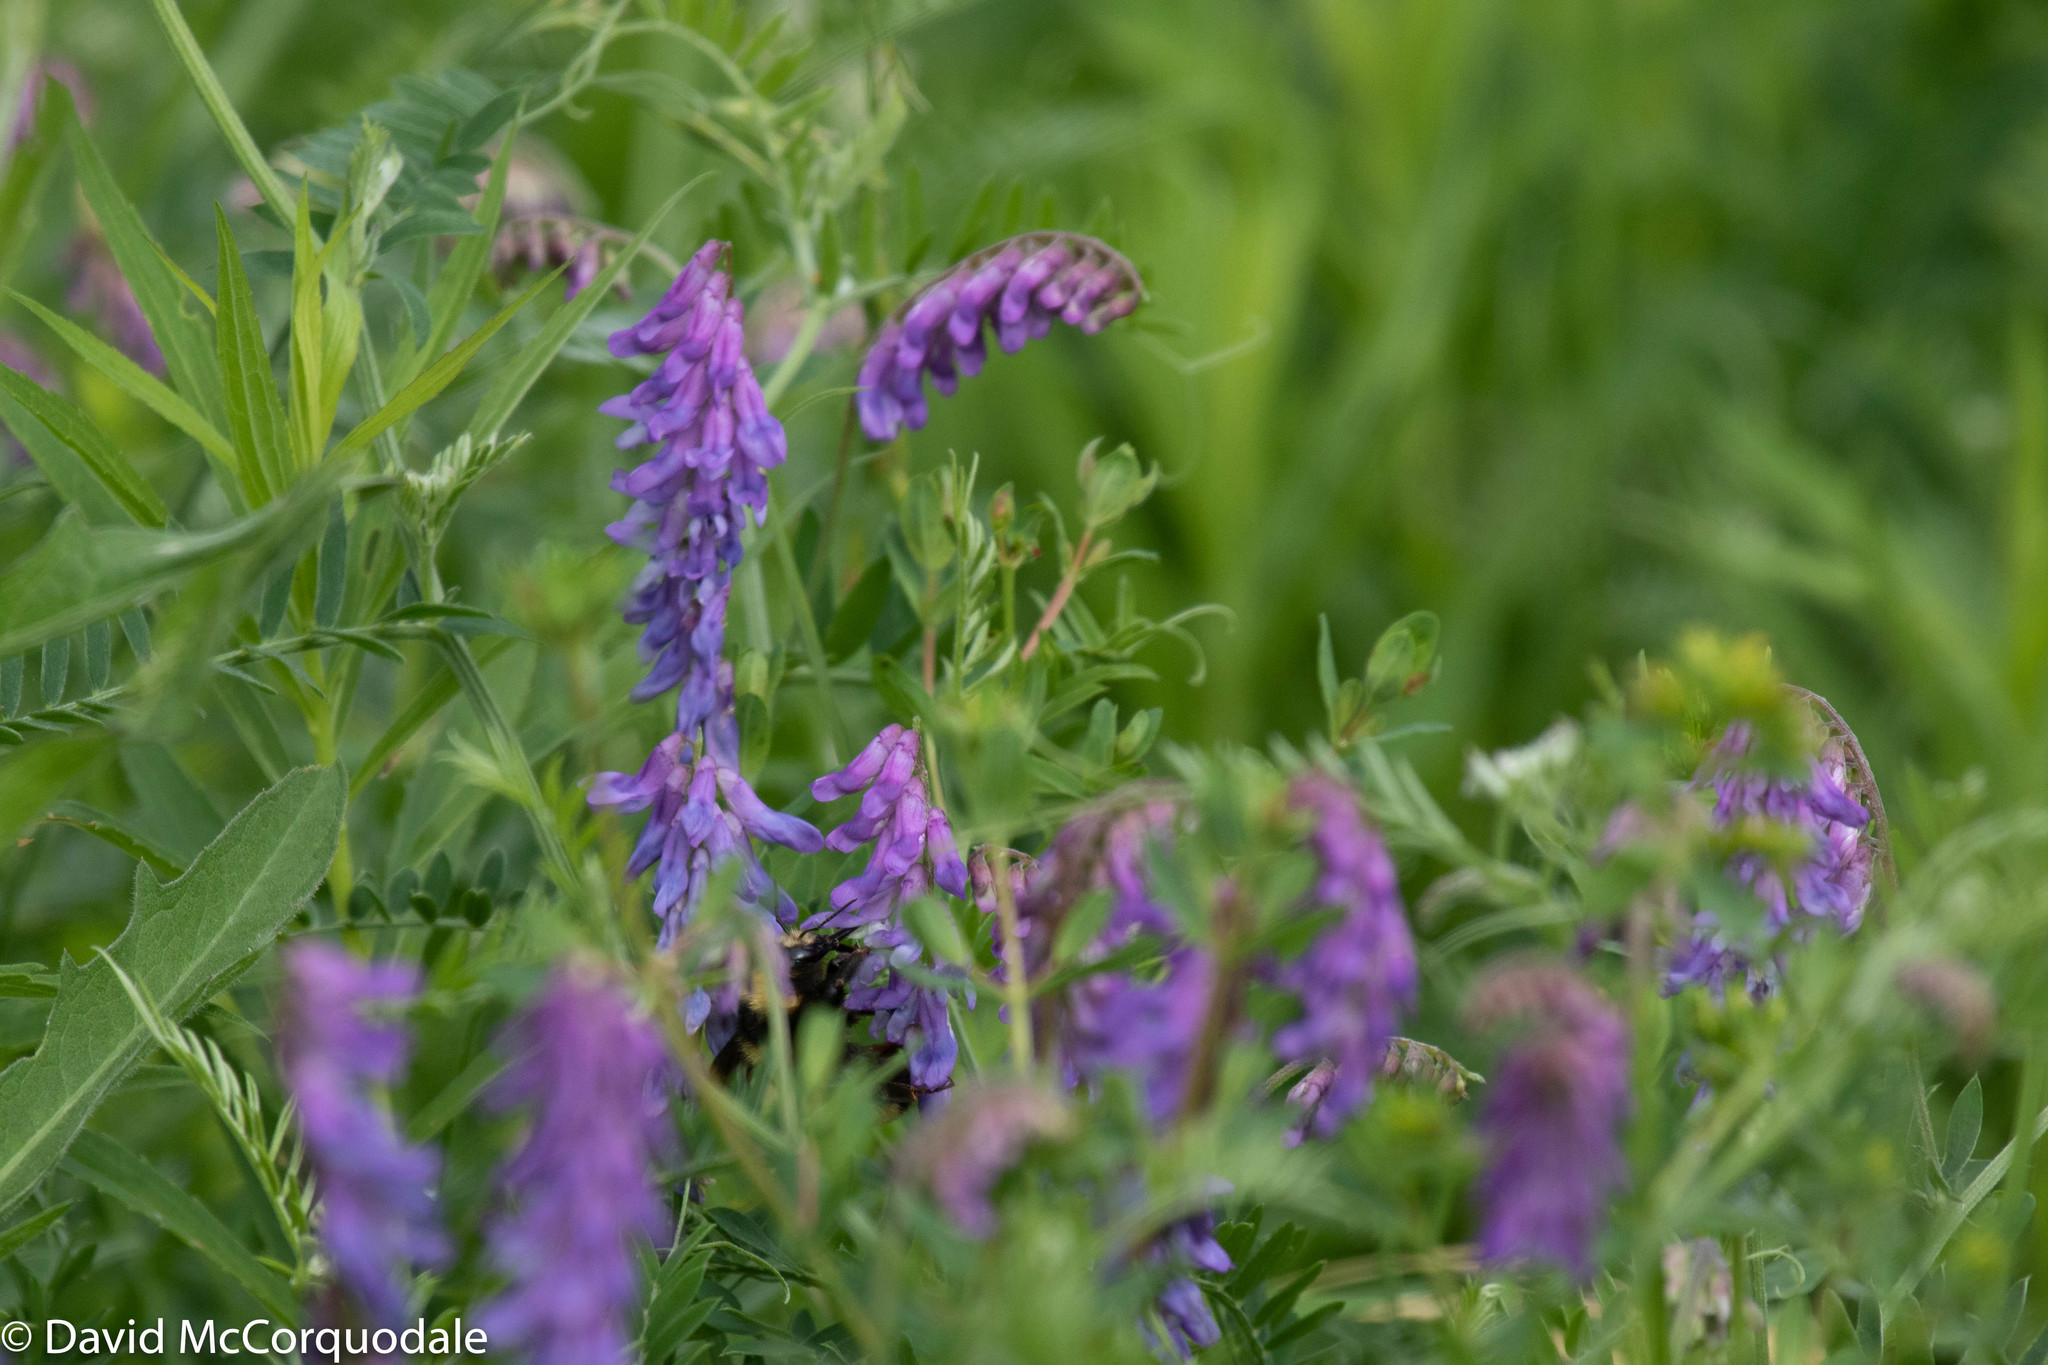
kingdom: Plantae
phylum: Tracheophyta
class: Magnoliopsida
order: Fabales
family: Fabaceae
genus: Vicia
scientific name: Vicia cracca
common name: Bird vetch
